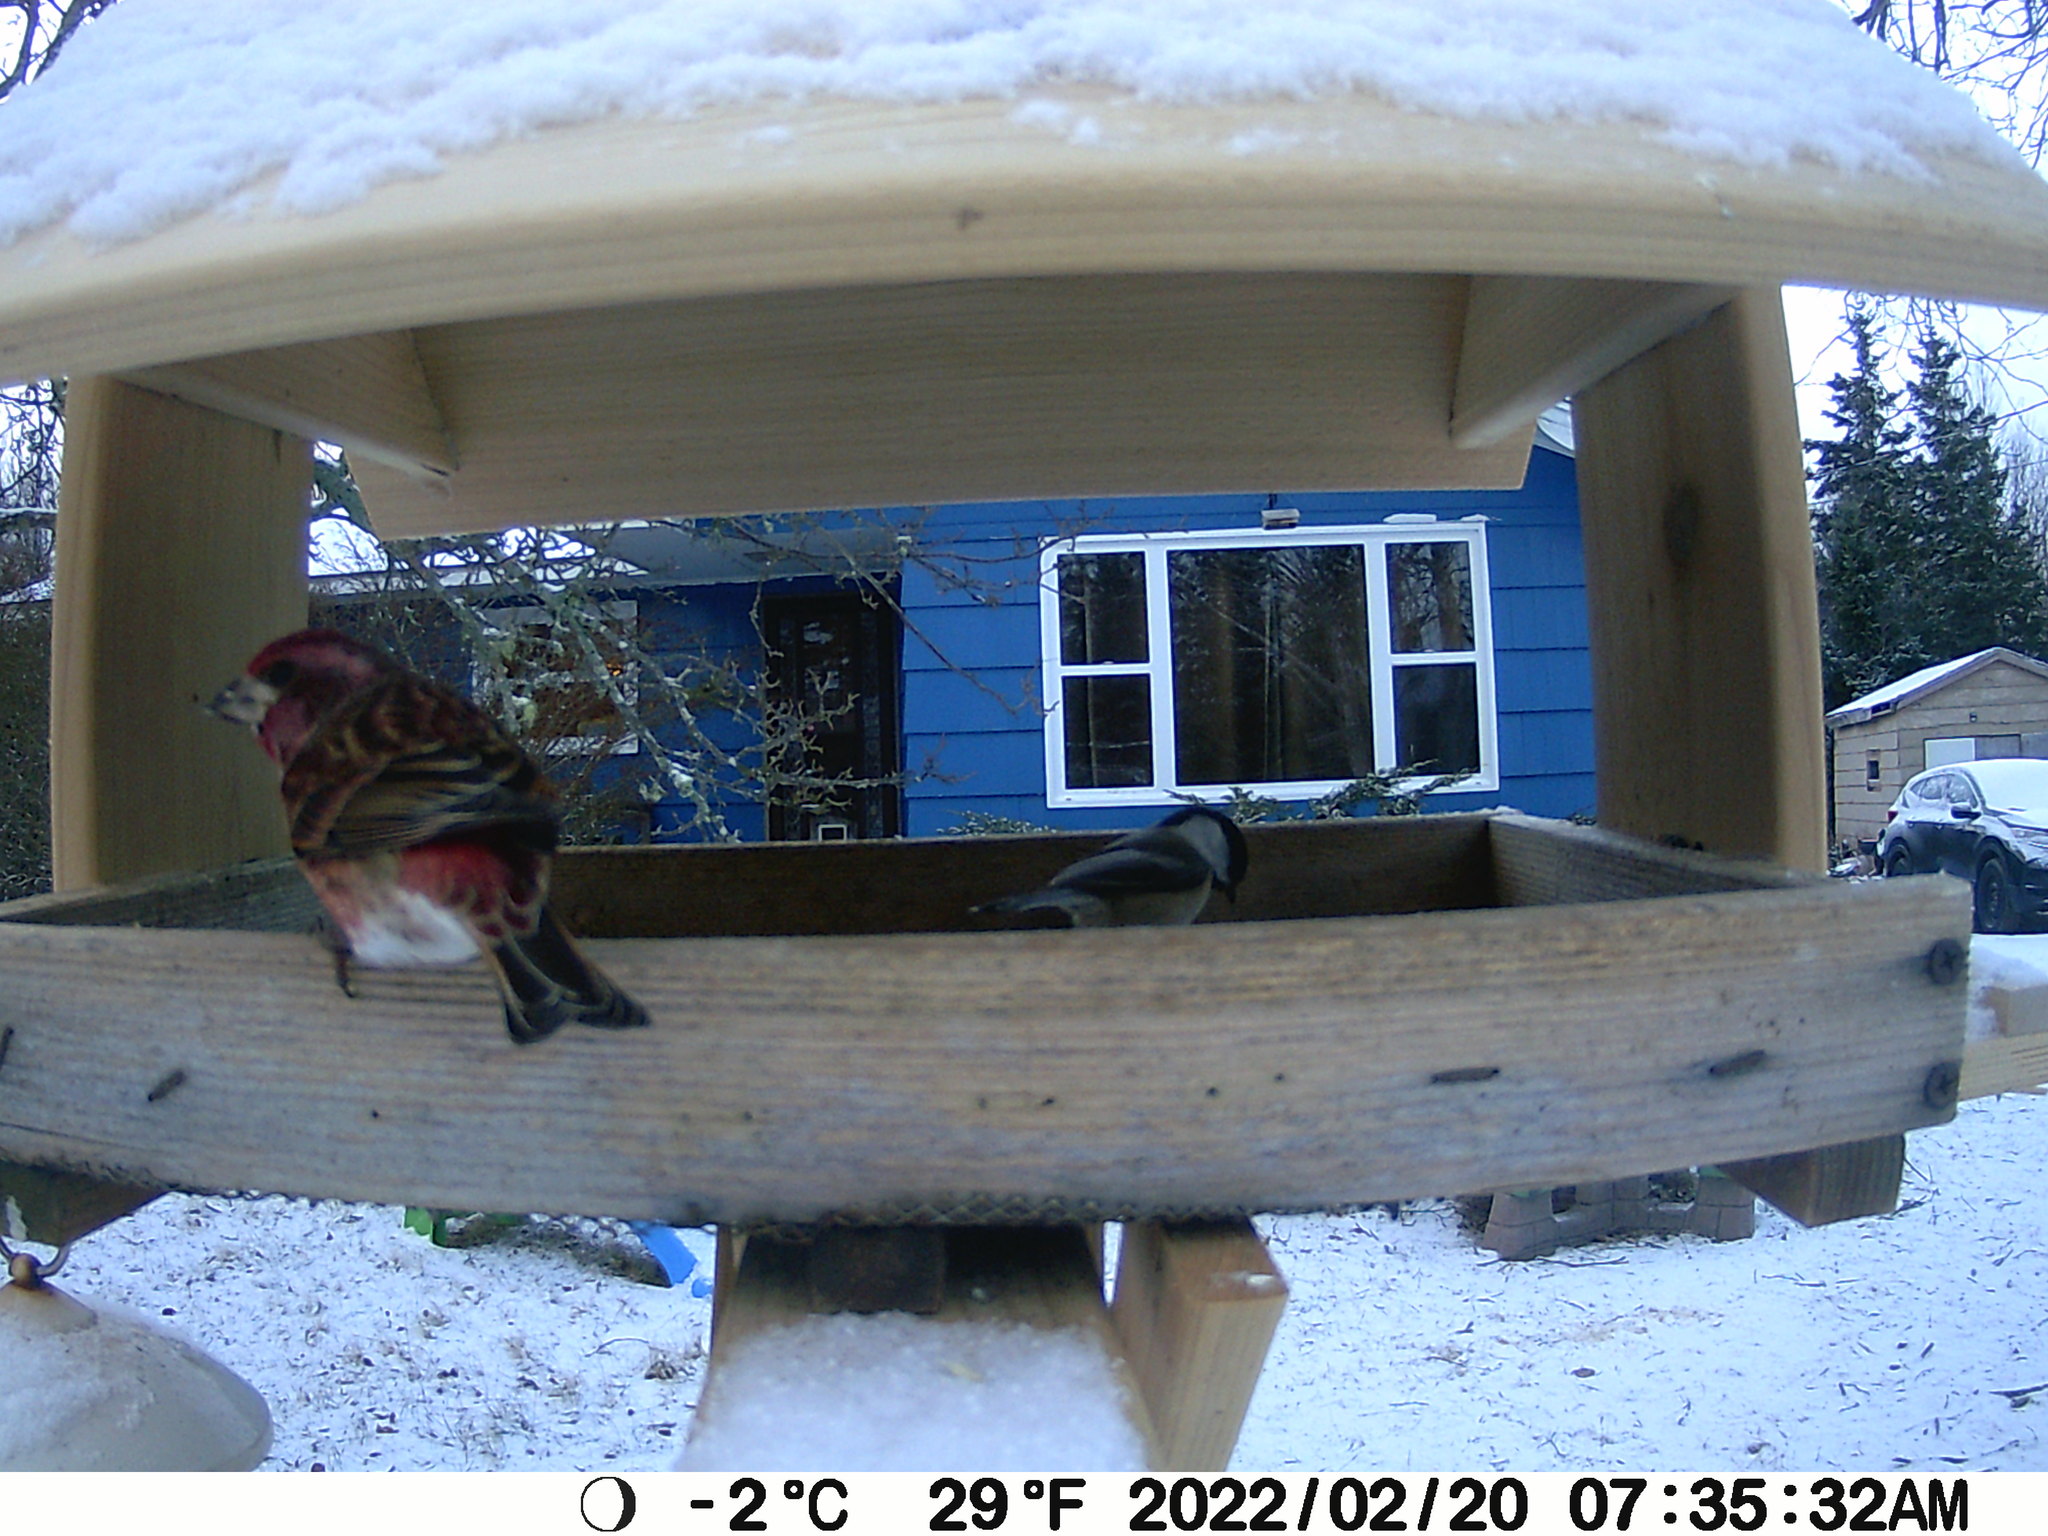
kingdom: Animalia
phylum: Chordata
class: Aves
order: Passeriformes
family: Fringillidae
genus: Haemorhous
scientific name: Haemorhous purpureus
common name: Purple finch
